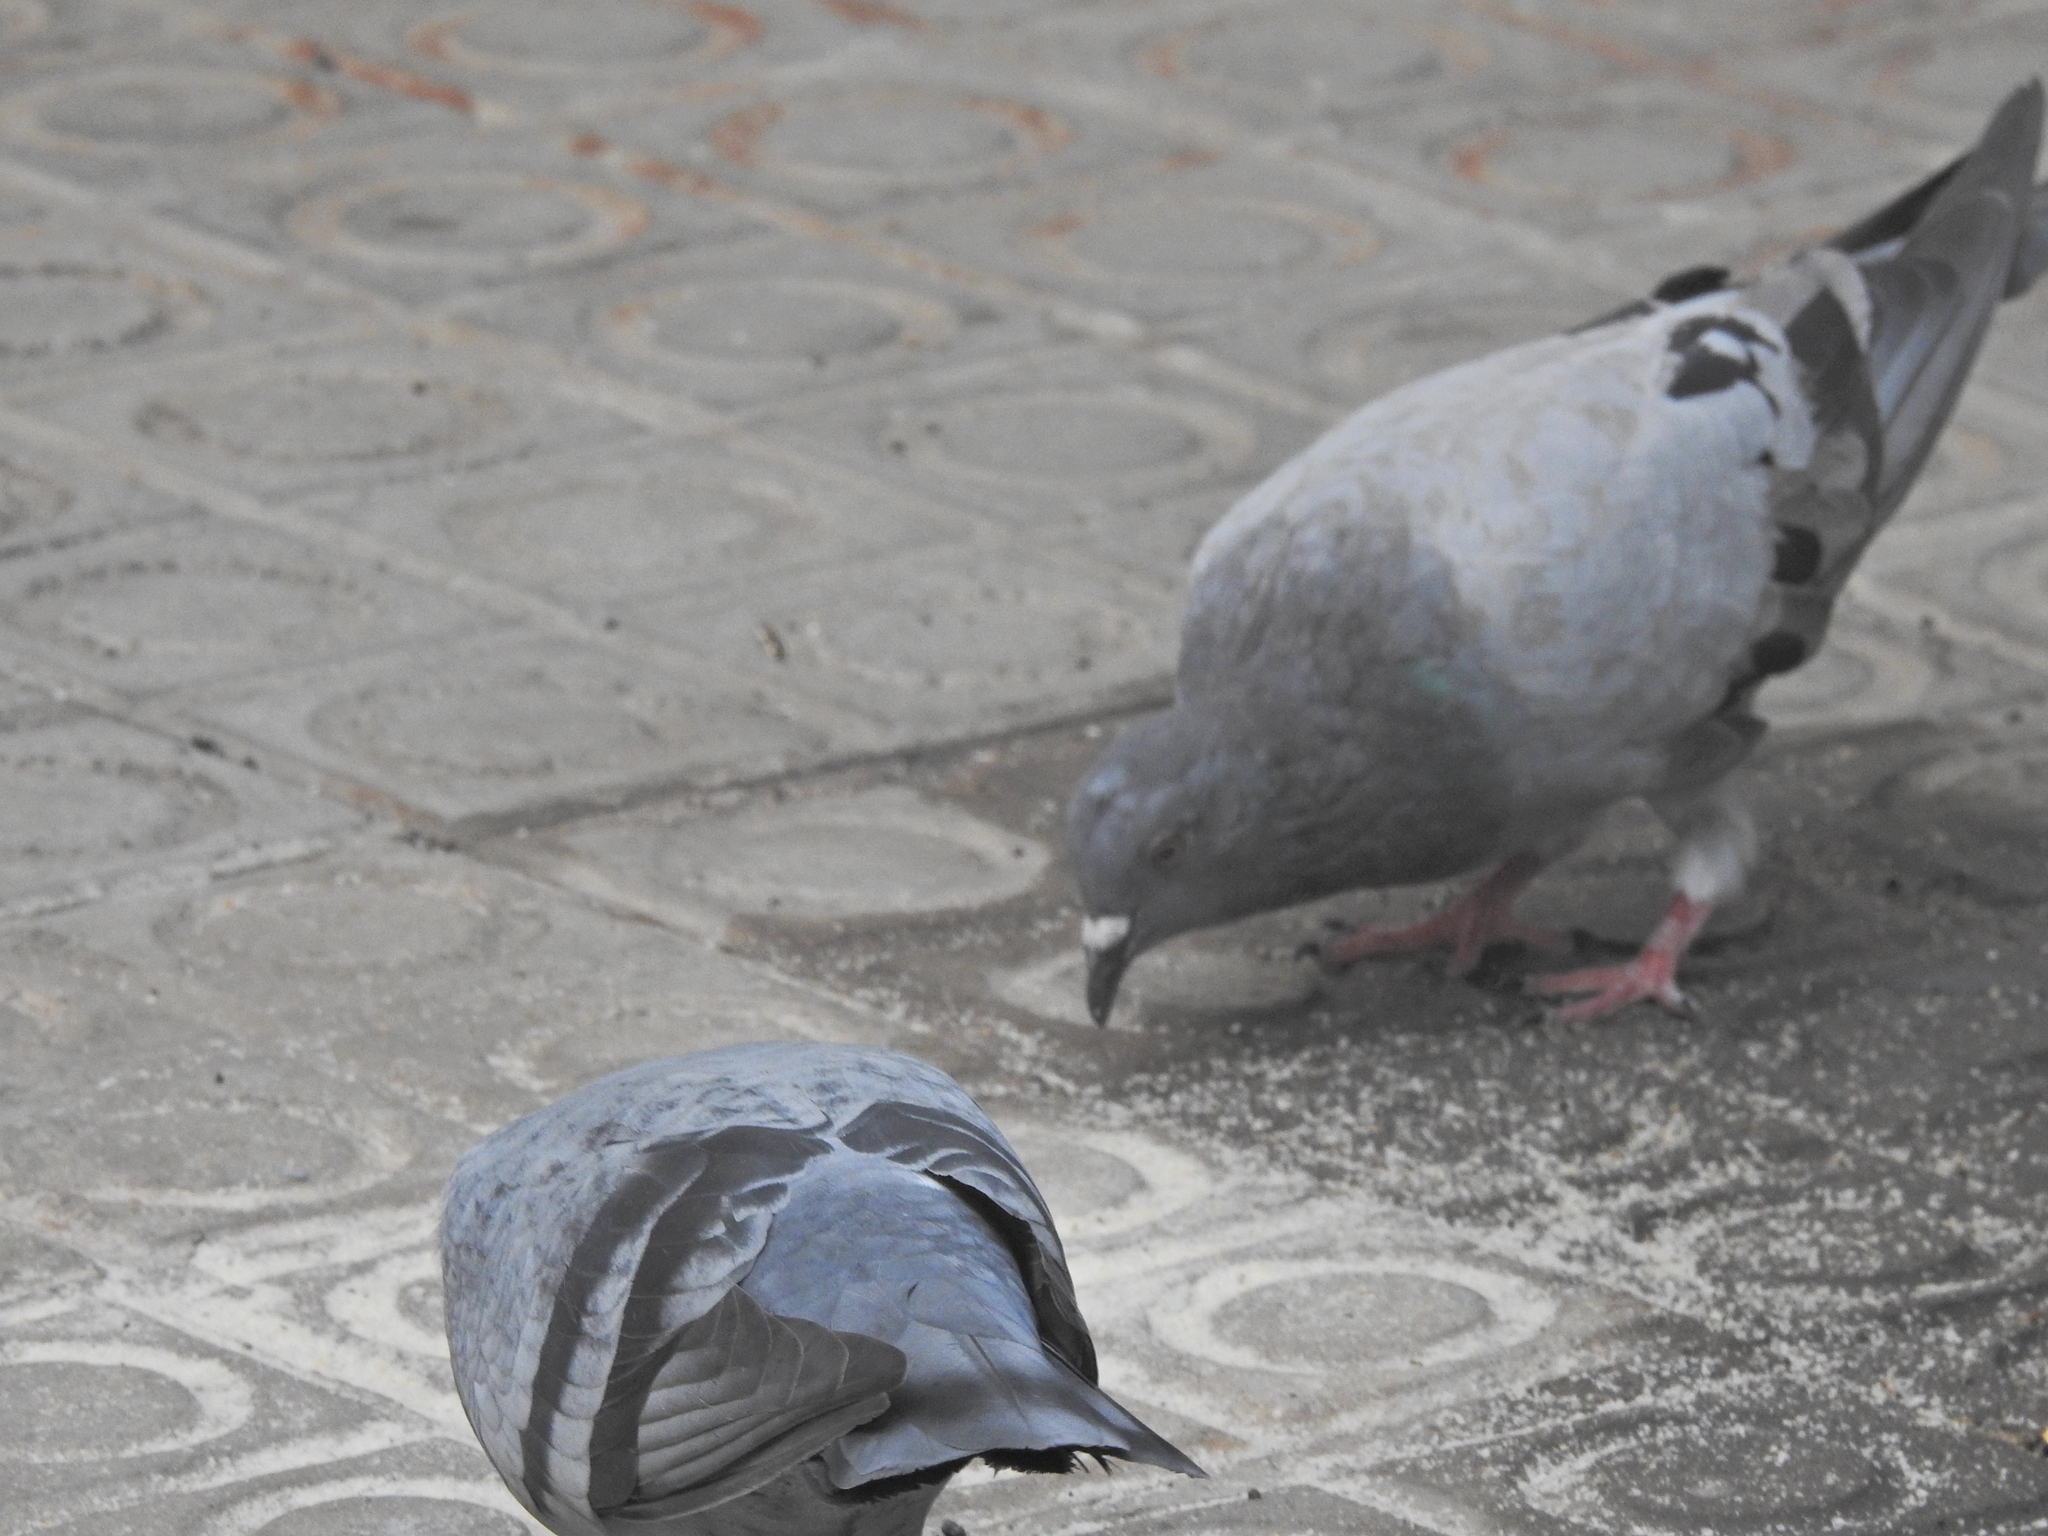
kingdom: Animalia
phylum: Chordata
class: Aves
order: Columbiformes
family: Columbidae
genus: Columba
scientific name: Columba livia
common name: Rock pigeon
